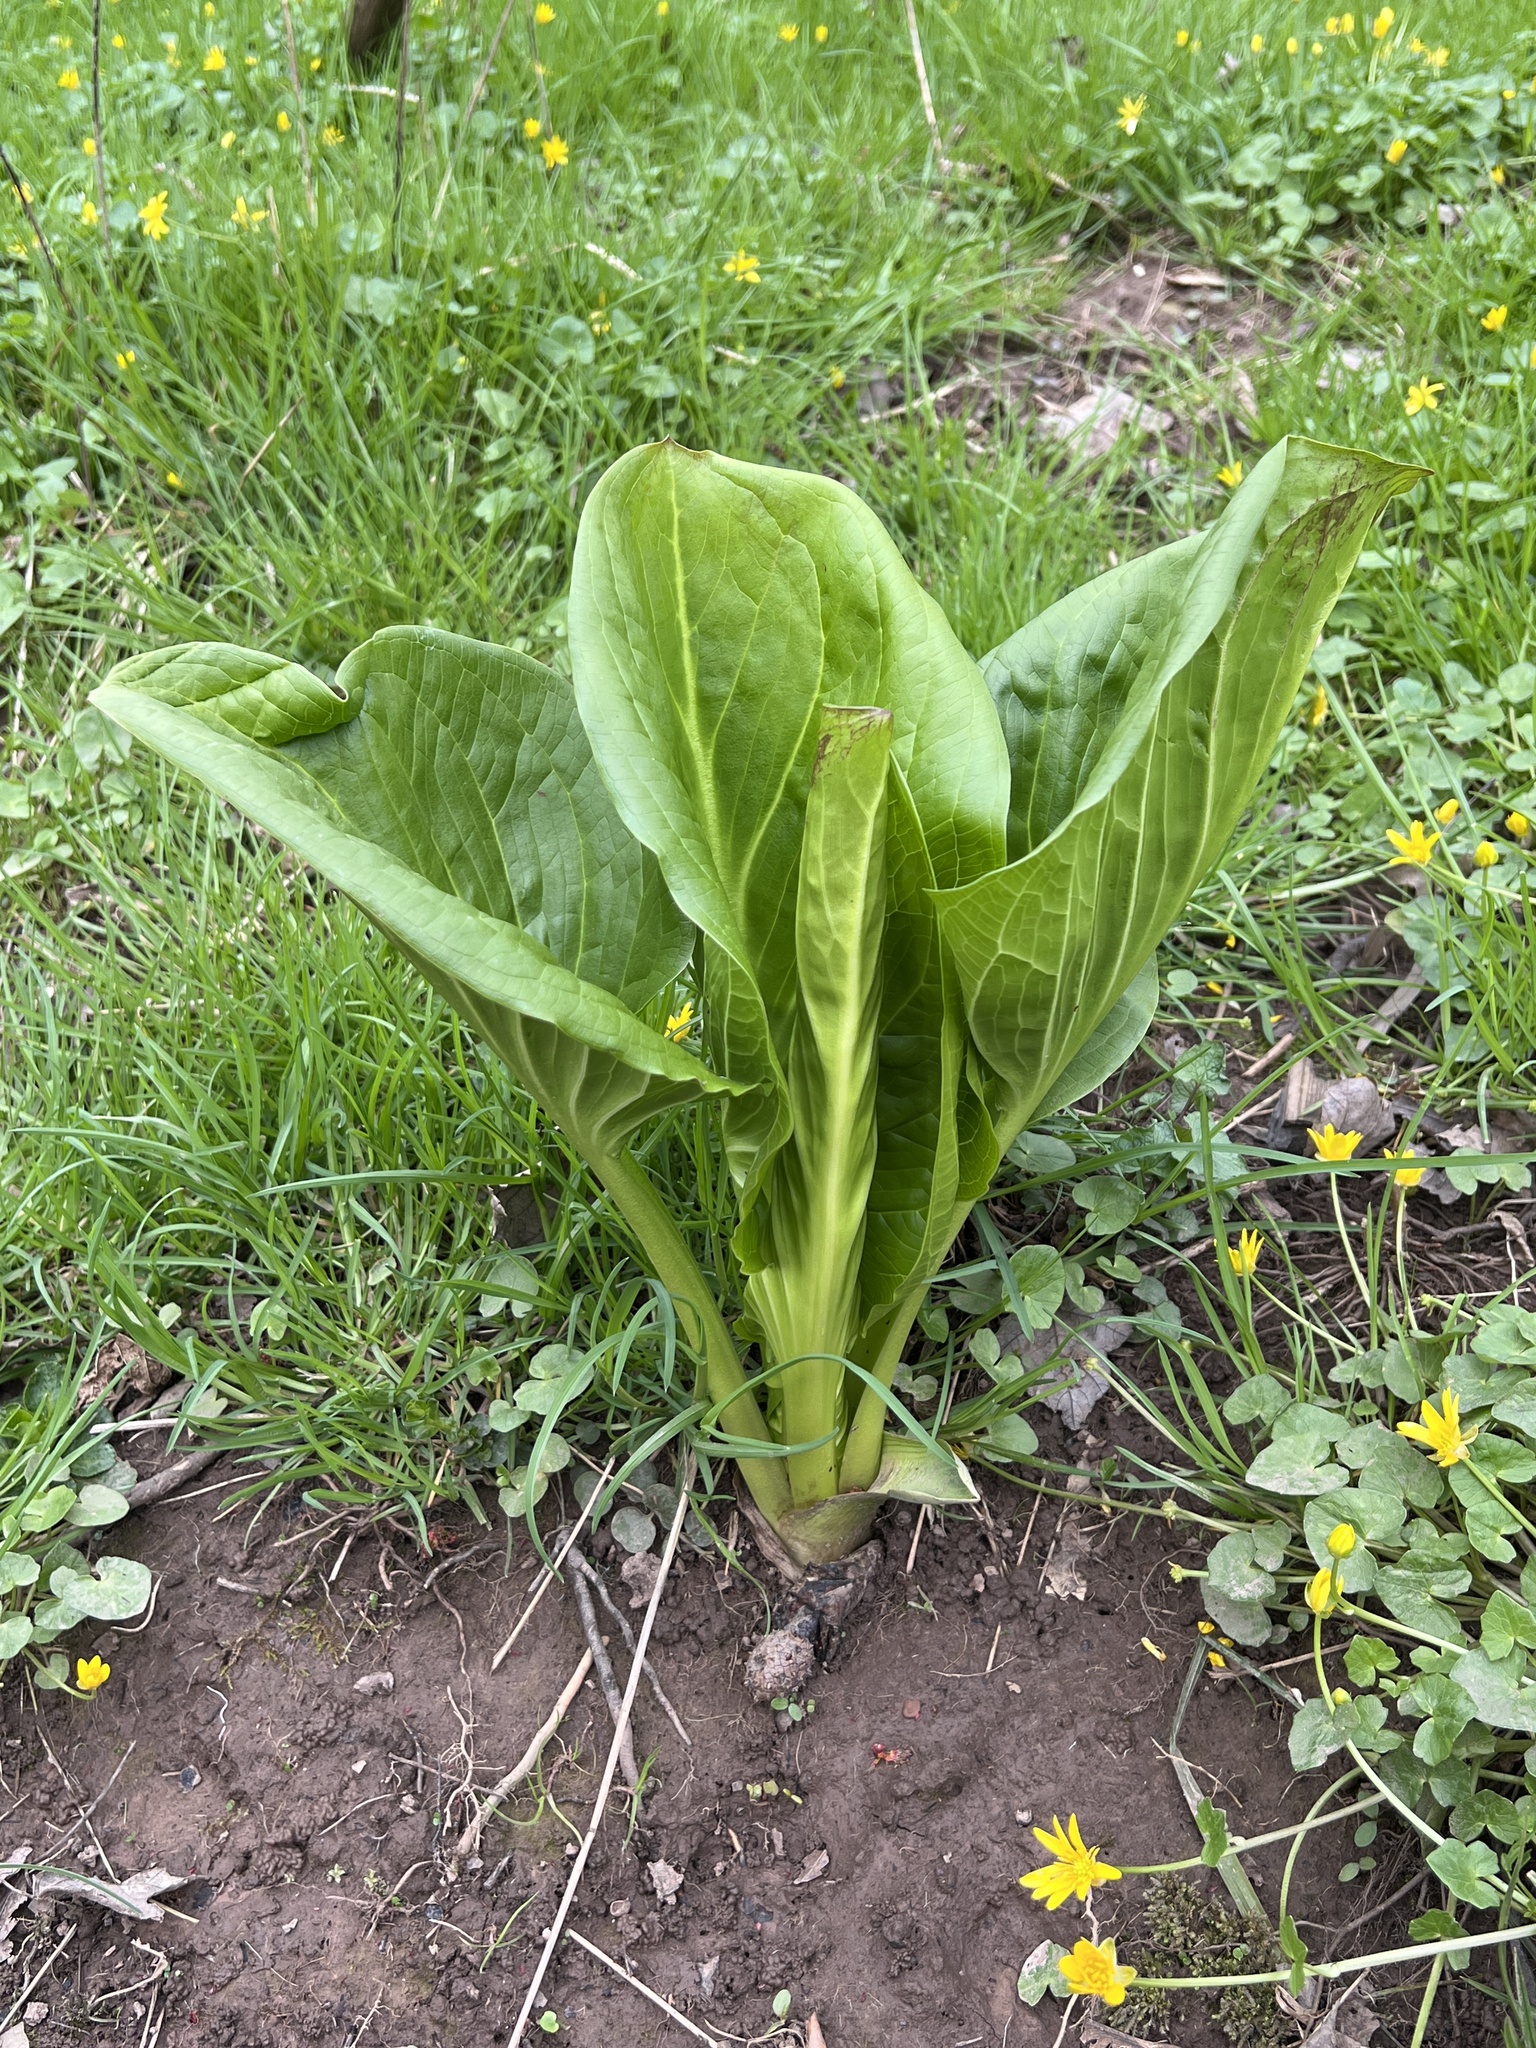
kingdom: Plantae
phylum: Tracheophyta
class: Liliopsida
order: Alismatales
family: Araceae
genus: Symplocarpus
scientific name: Symplocarpus foetidus
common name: Eastern skunk cabbage
